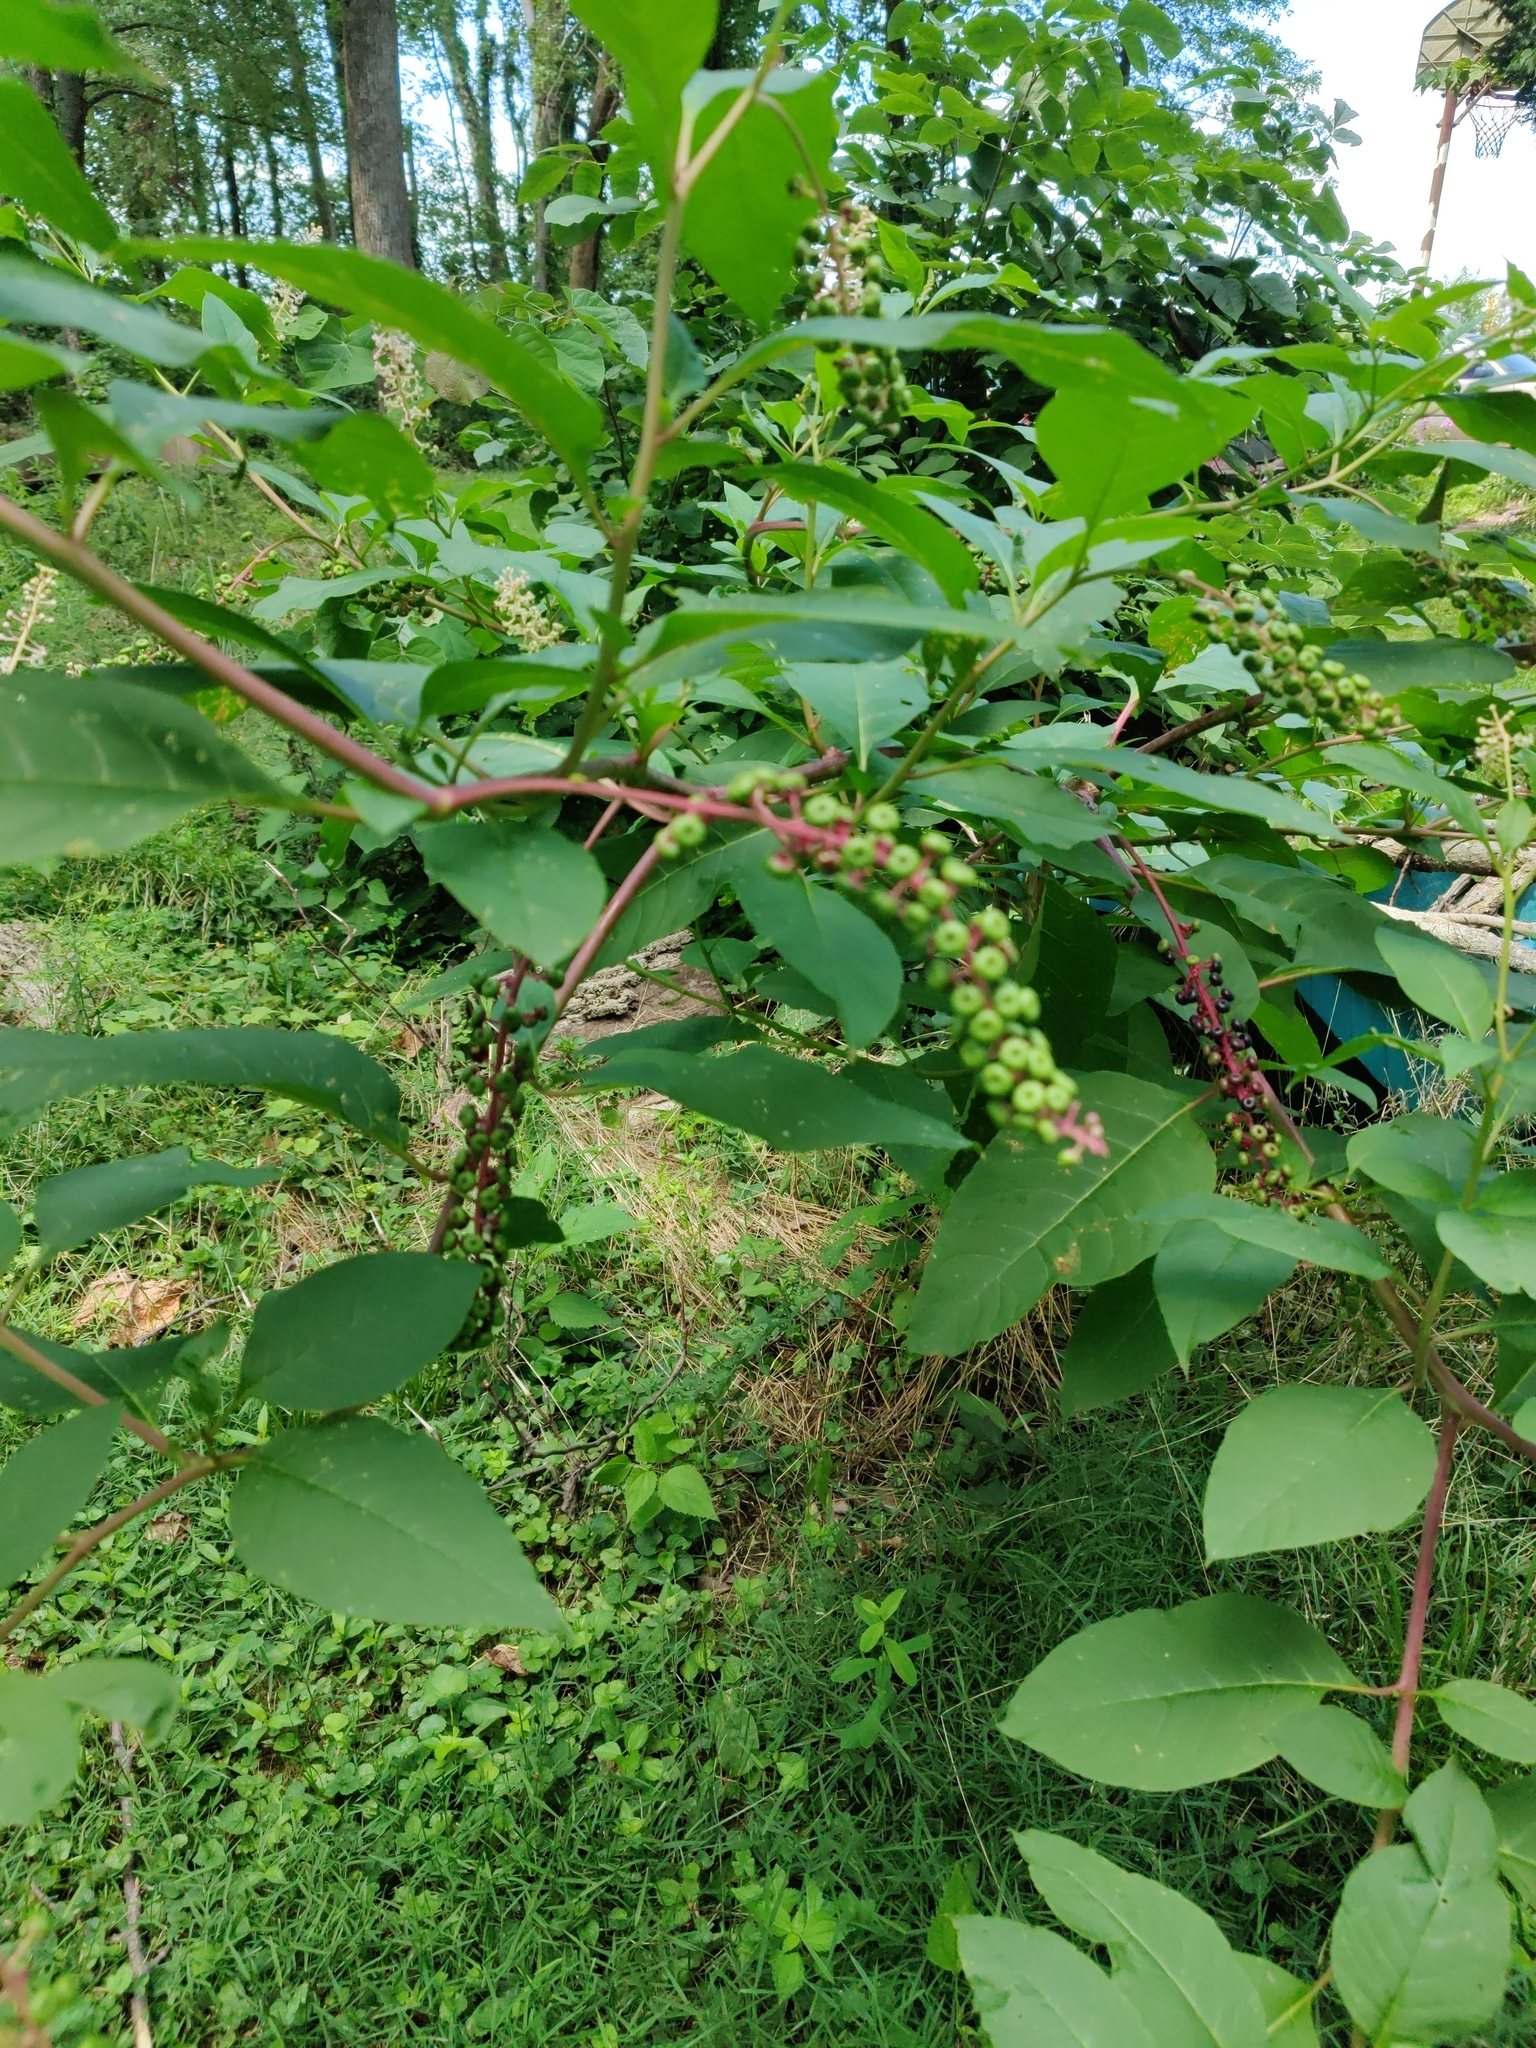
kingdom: Plantae
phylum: Tracheophyta
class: Magnoliopsida
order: Caryophyllales
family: Phytolaccaceae
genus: Phytolacca
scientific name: Phytolacca americana
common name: American pokeweed
